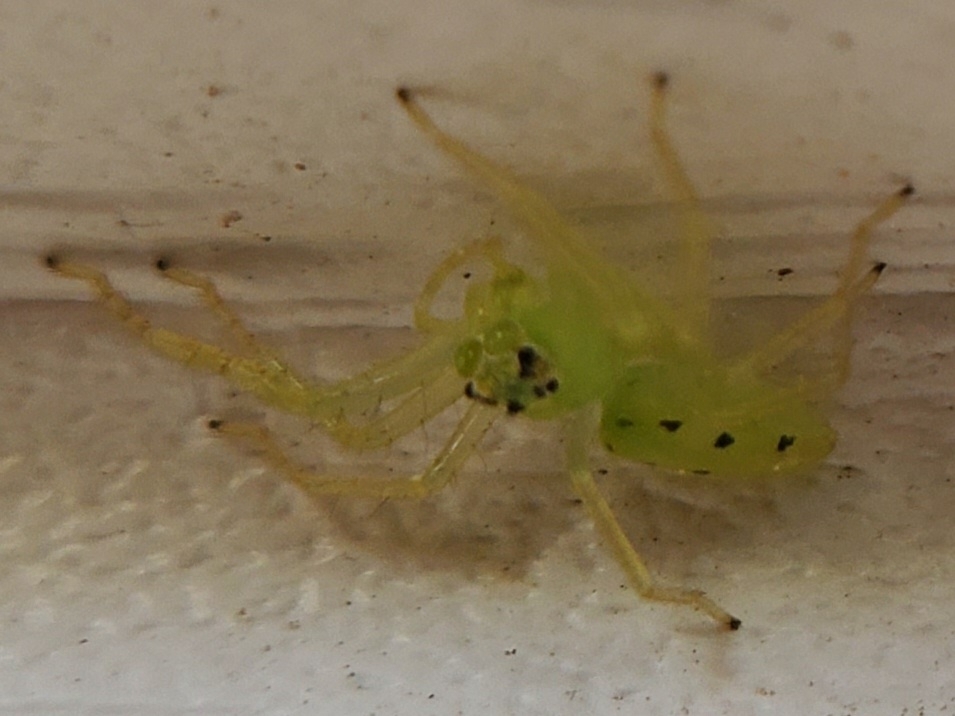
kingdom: Animalia
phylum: Arthropoda
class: Arachnida
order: Araneae
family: Salticidae
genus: Lyssomanes
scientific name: Lyssomanes viridis
